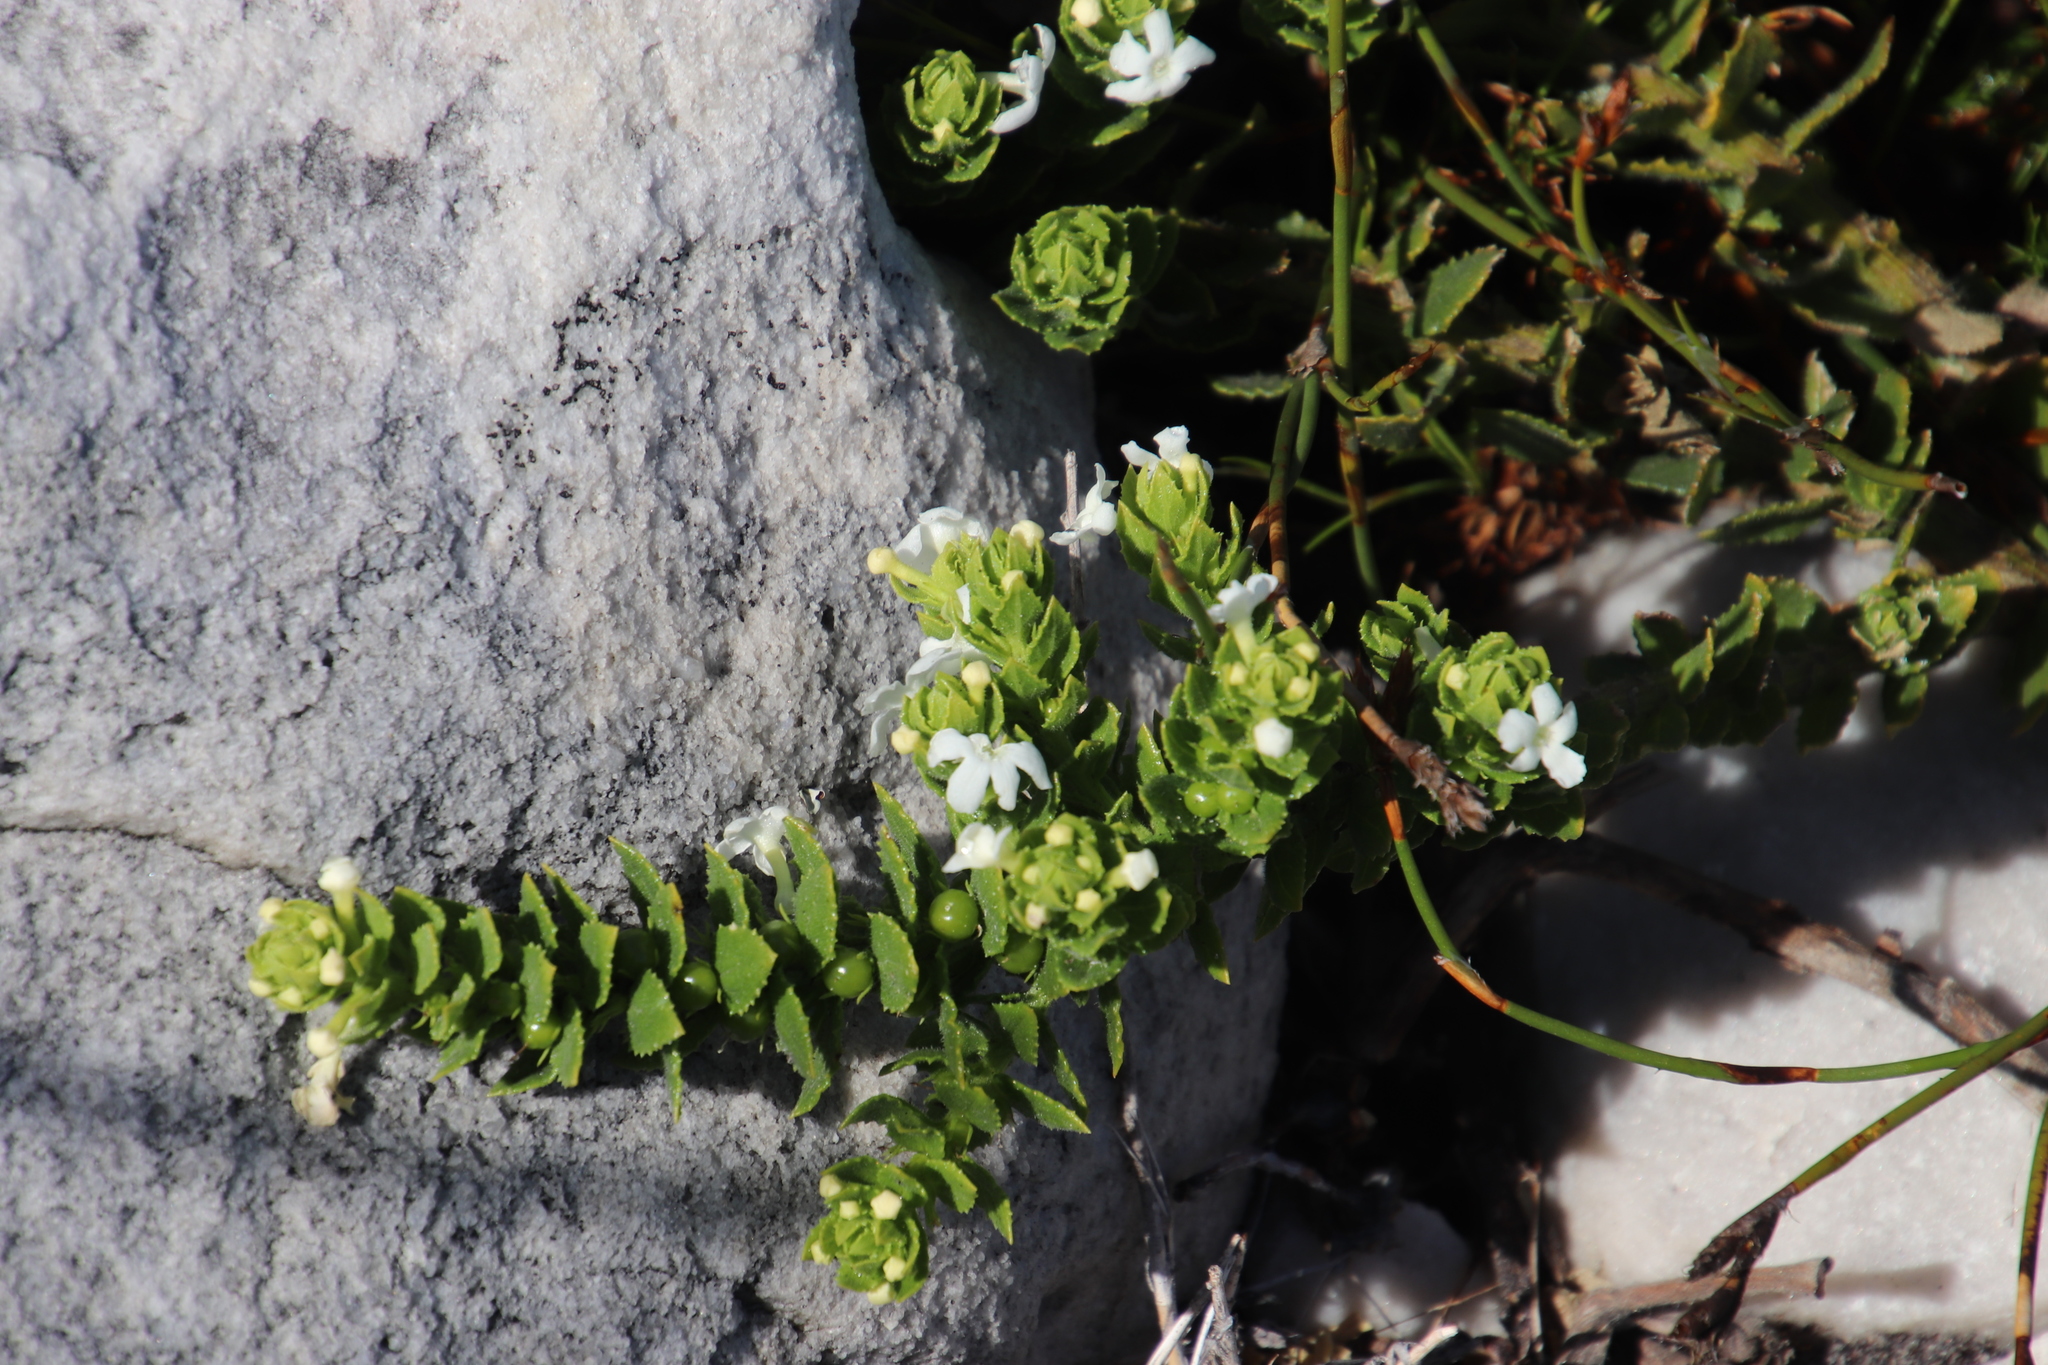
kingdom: Plantae
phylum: Tracheophyta
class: Magnoliopsida
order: Lamiales
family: Scrophulariaceae
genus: Oftia
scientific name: Oftia africana
